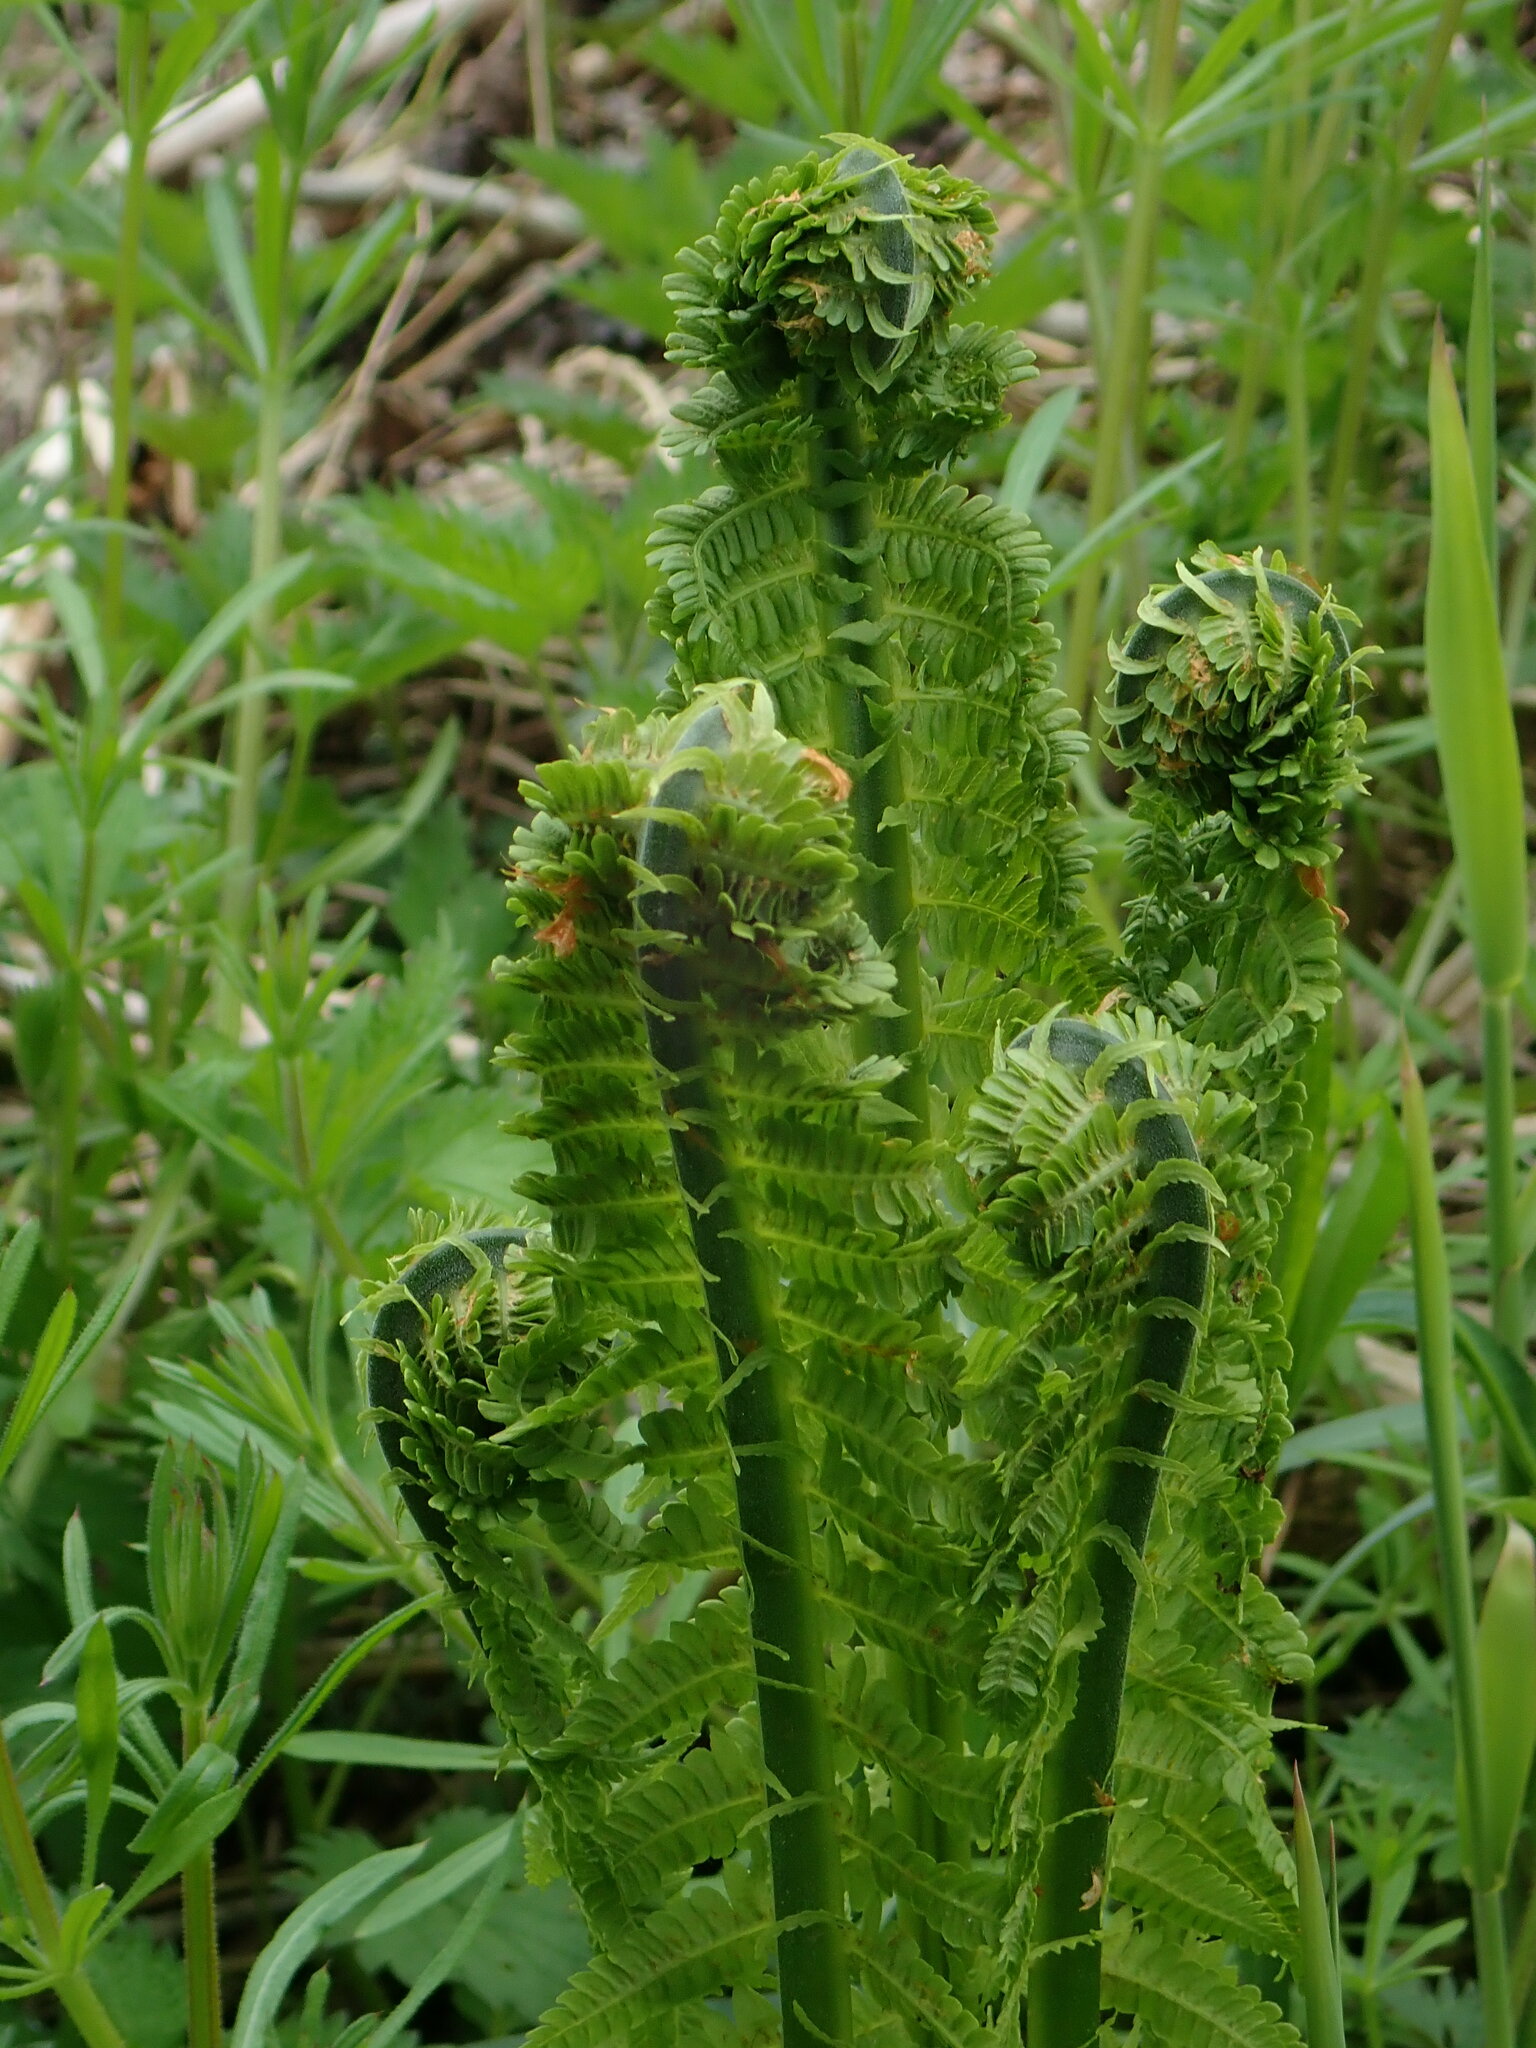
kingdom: Plantae
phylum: Tracheophyta
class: Polypodiopsida
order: Polypodiales
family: Onocleaceae
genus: Matteuccia
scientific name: Matteuccia struthiopteris
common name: Ostrich fern
